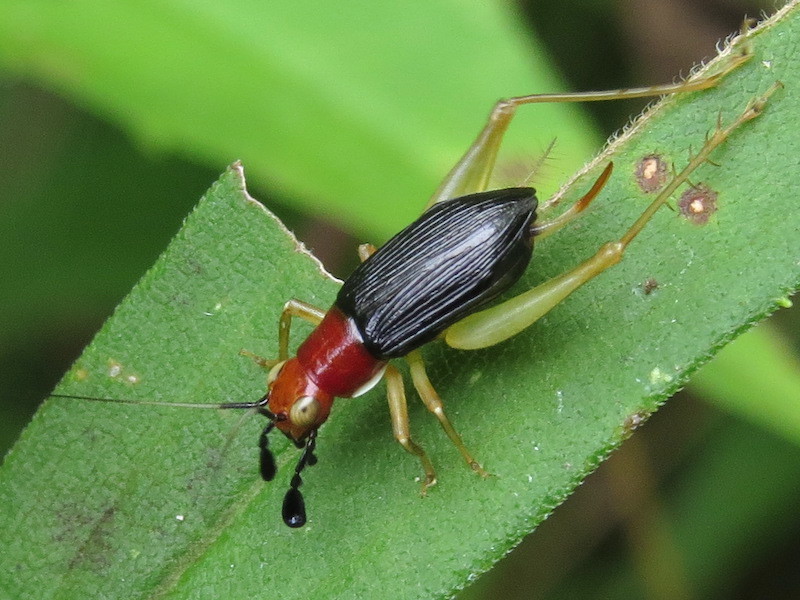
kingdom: Animalia
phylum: Arthropoda
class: Insecta
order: Orthoptera
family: Trigonidiidae
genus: Phyllopalpus
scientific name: Phyllopalpus pulchellus
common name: Handsome trig
